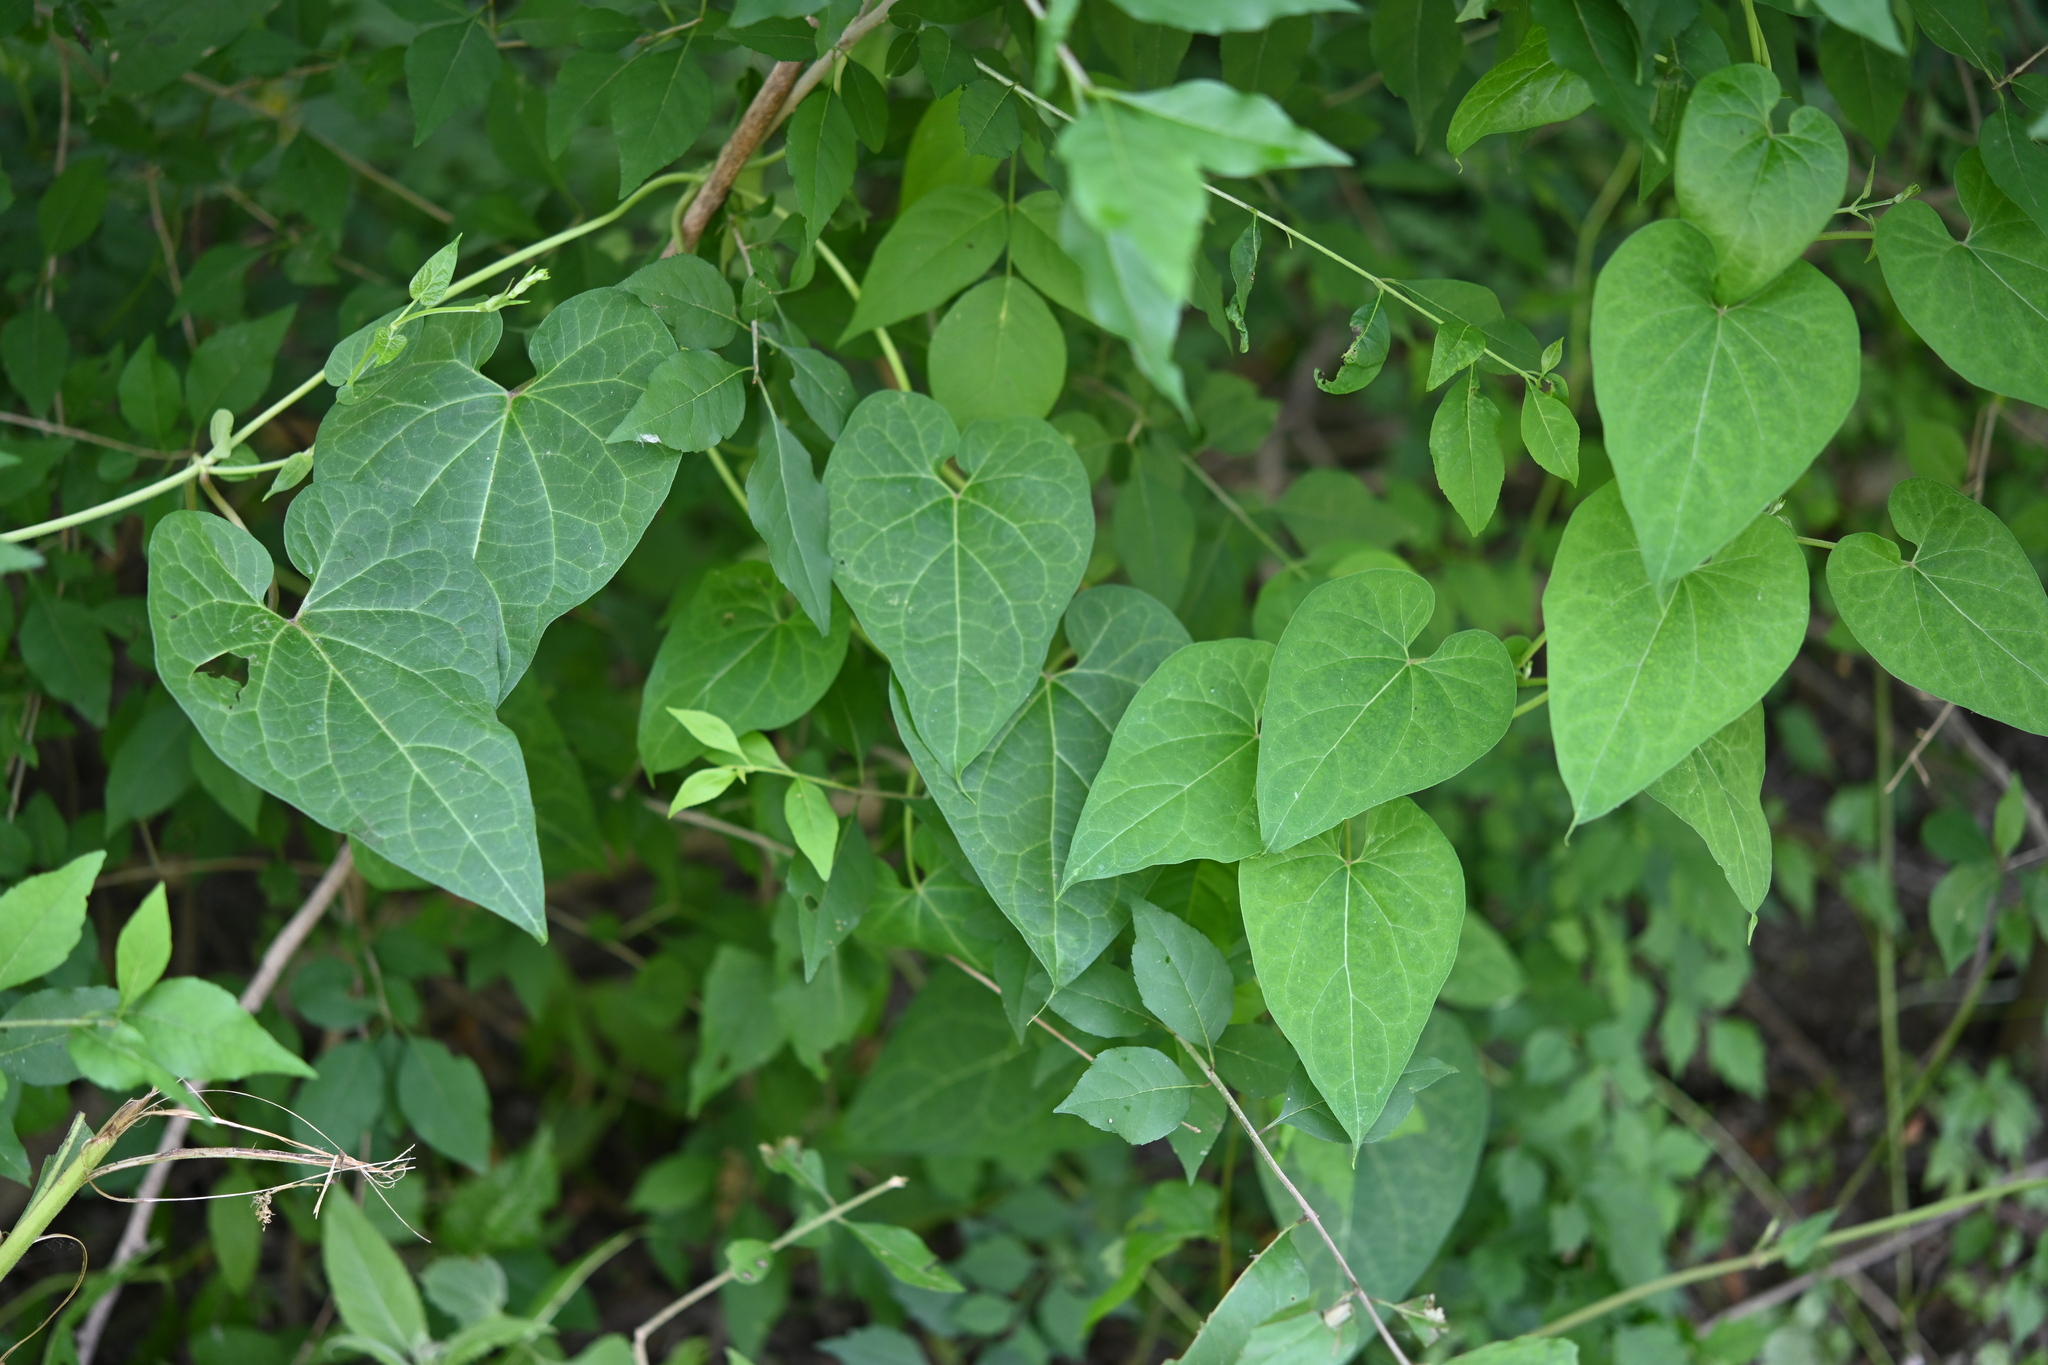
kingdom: Plantae
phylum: Tracheophyta
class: Magnoliopsida
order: Gentianales
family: Apocynaceae
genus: Cynanchum
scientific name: Cynanchum laeve
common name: Sandvine
